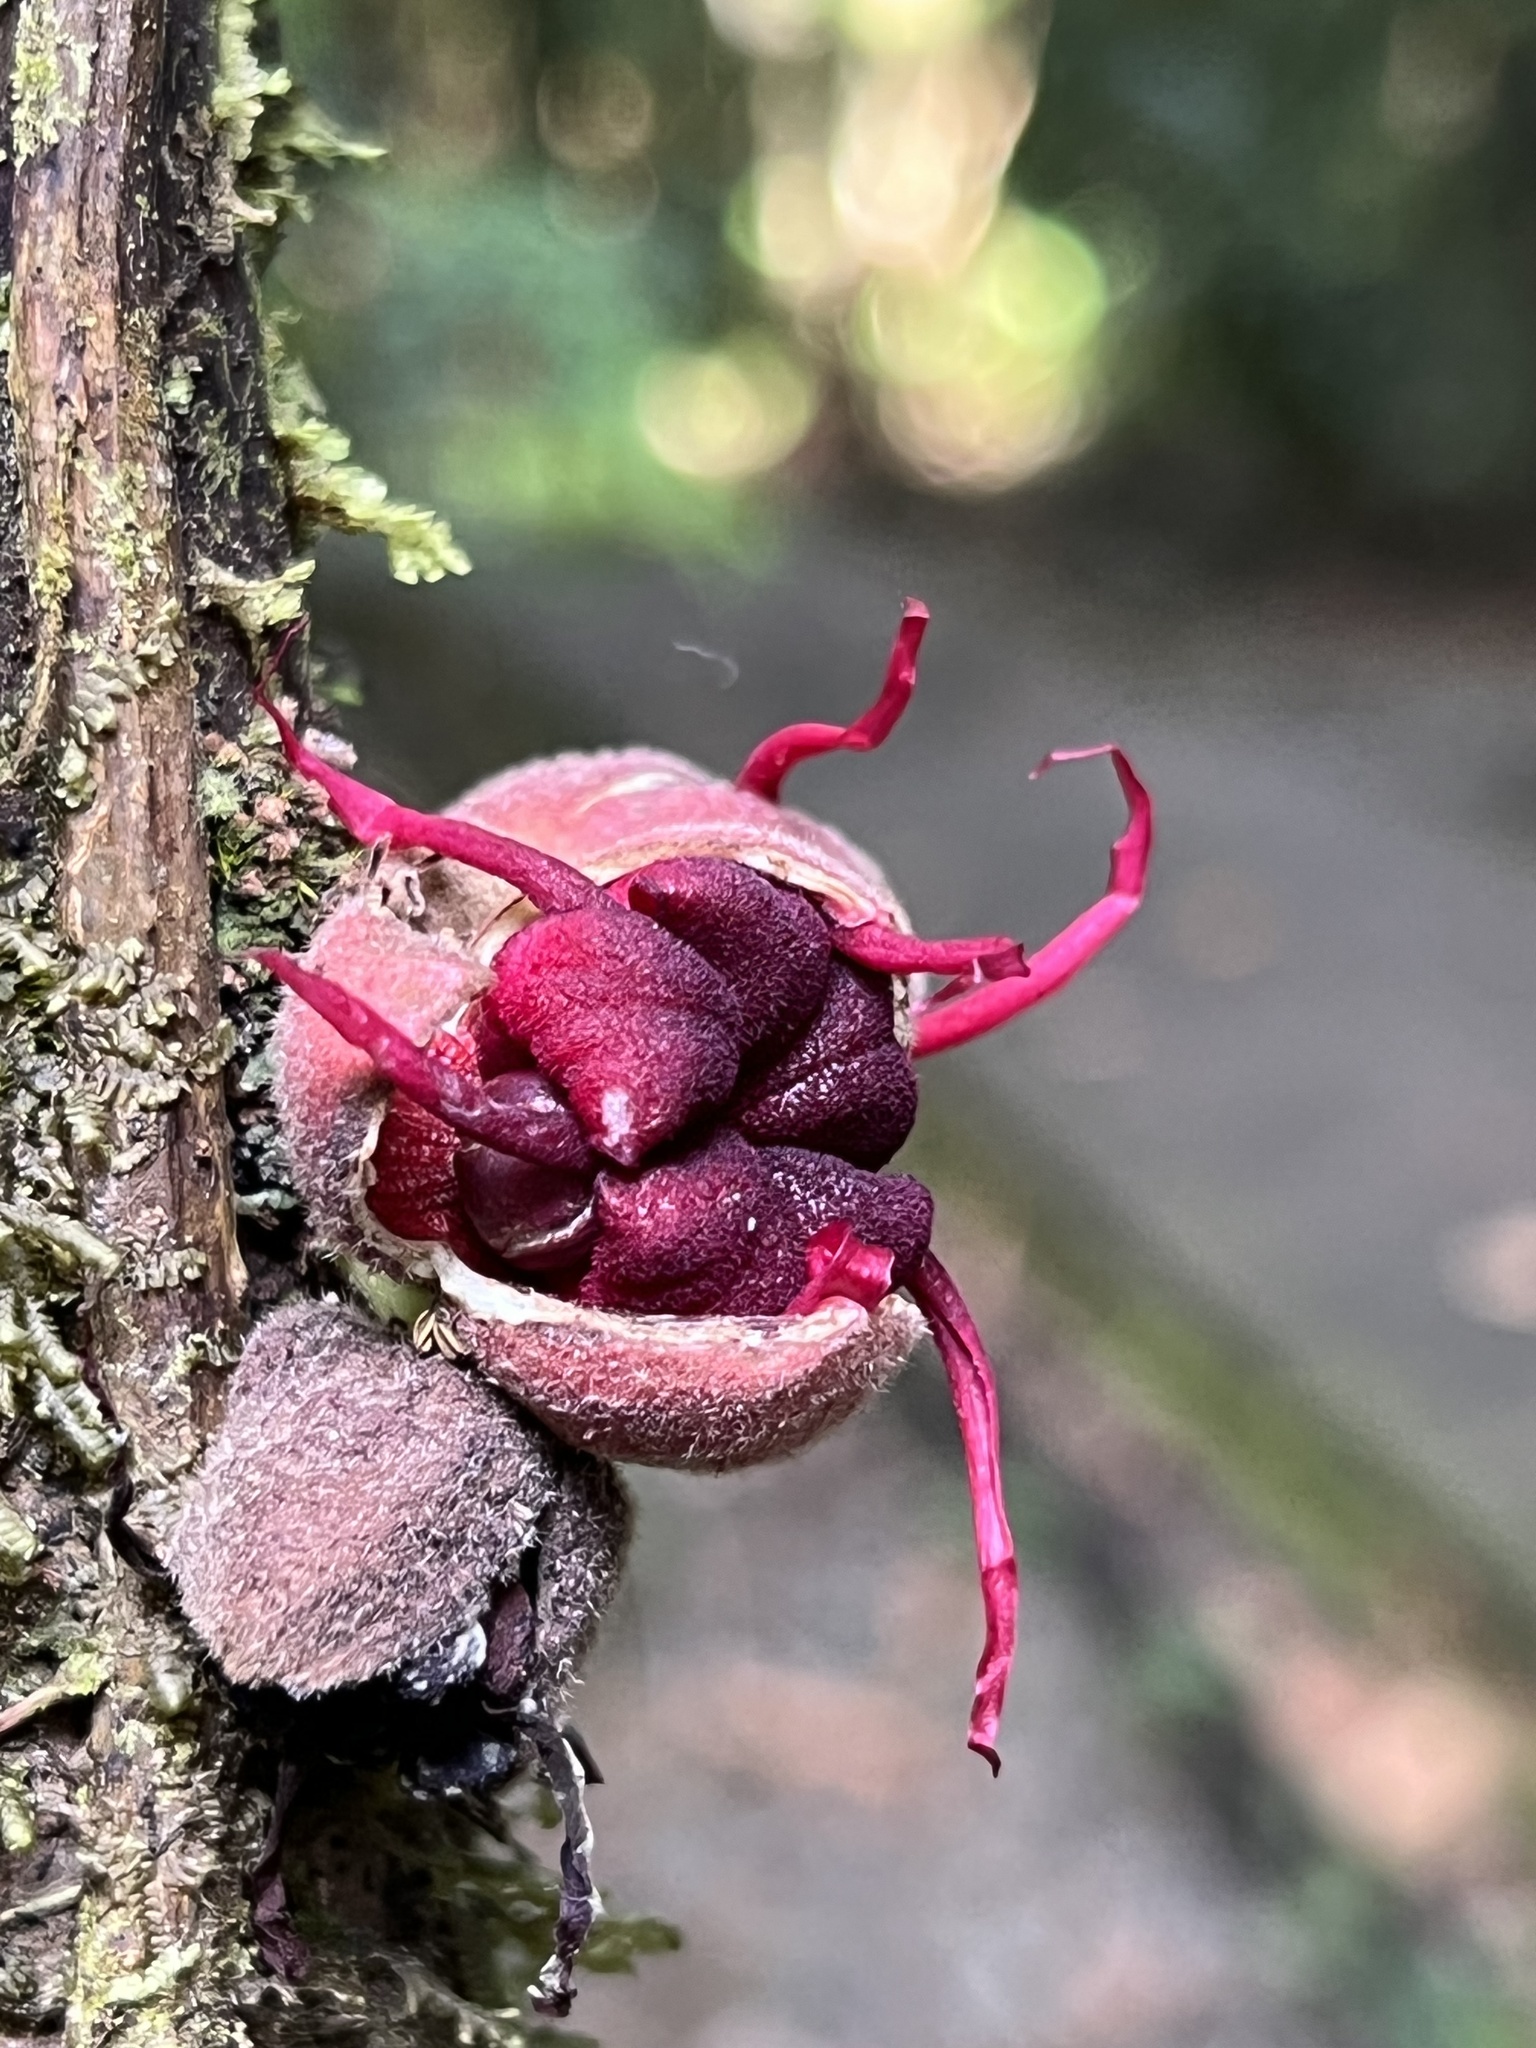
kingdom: Plantae
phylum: Tracheophyta
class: Magnoliopsida
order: Malvales
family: Malvaceae
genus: Herrania
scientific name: Herrania purpurea
